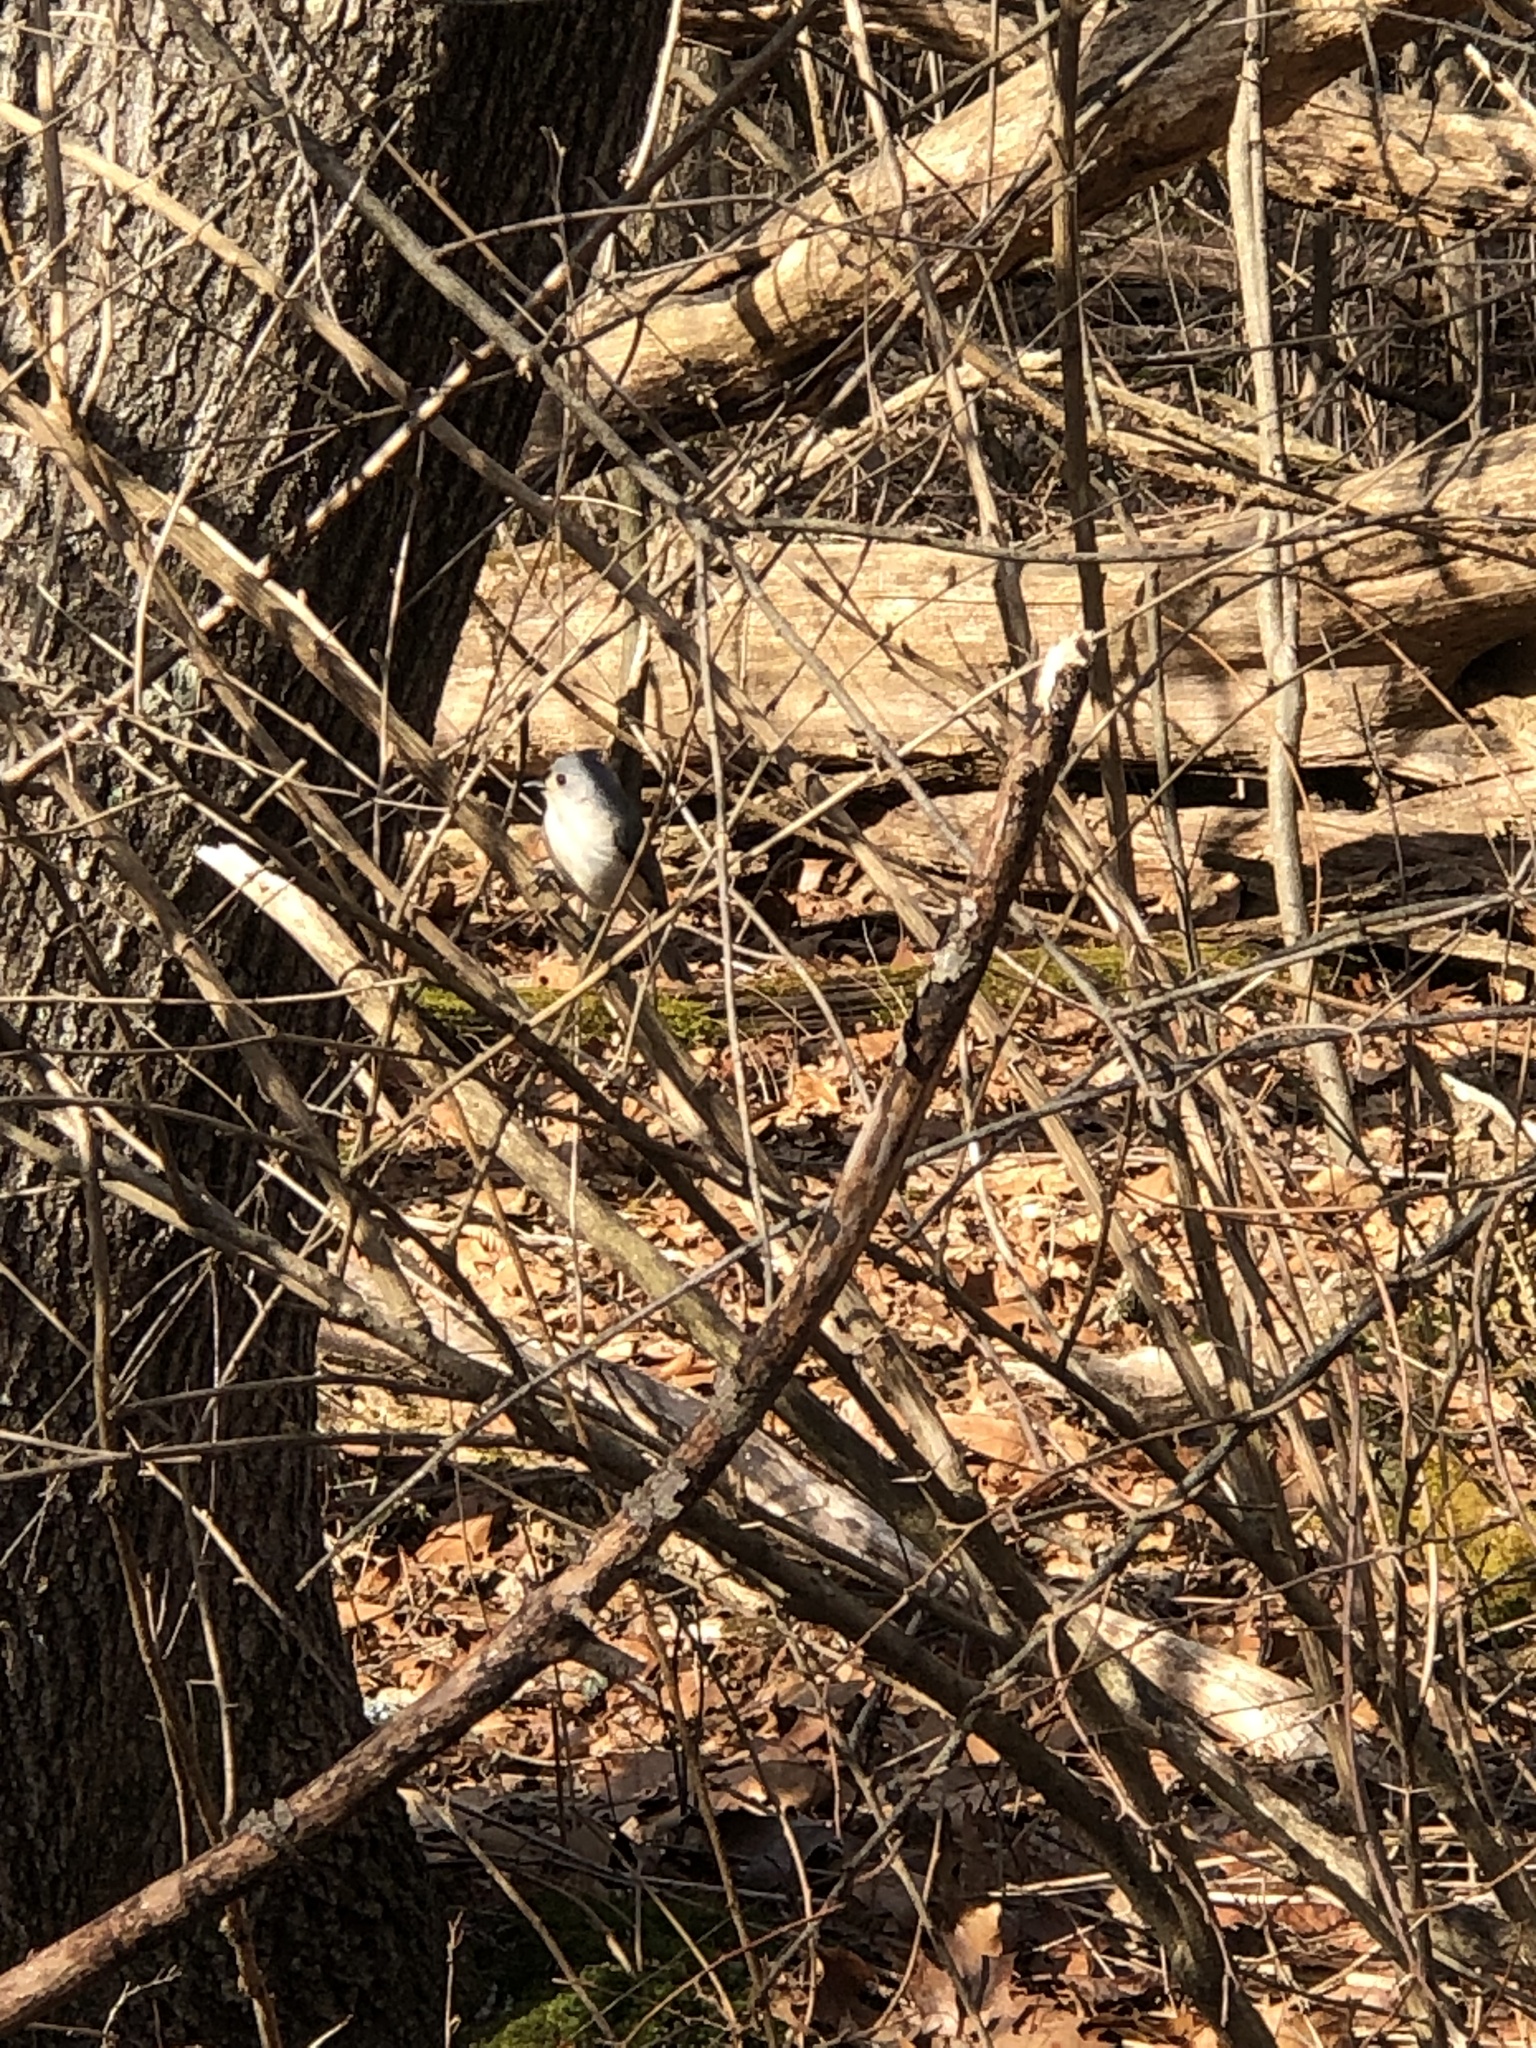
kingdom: Animalia
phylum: Chordata
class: Aves
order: Passeriformes
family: Paridae
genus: Baeolophus
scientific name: Baeolophus bicolor
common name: Tufted titmouse
